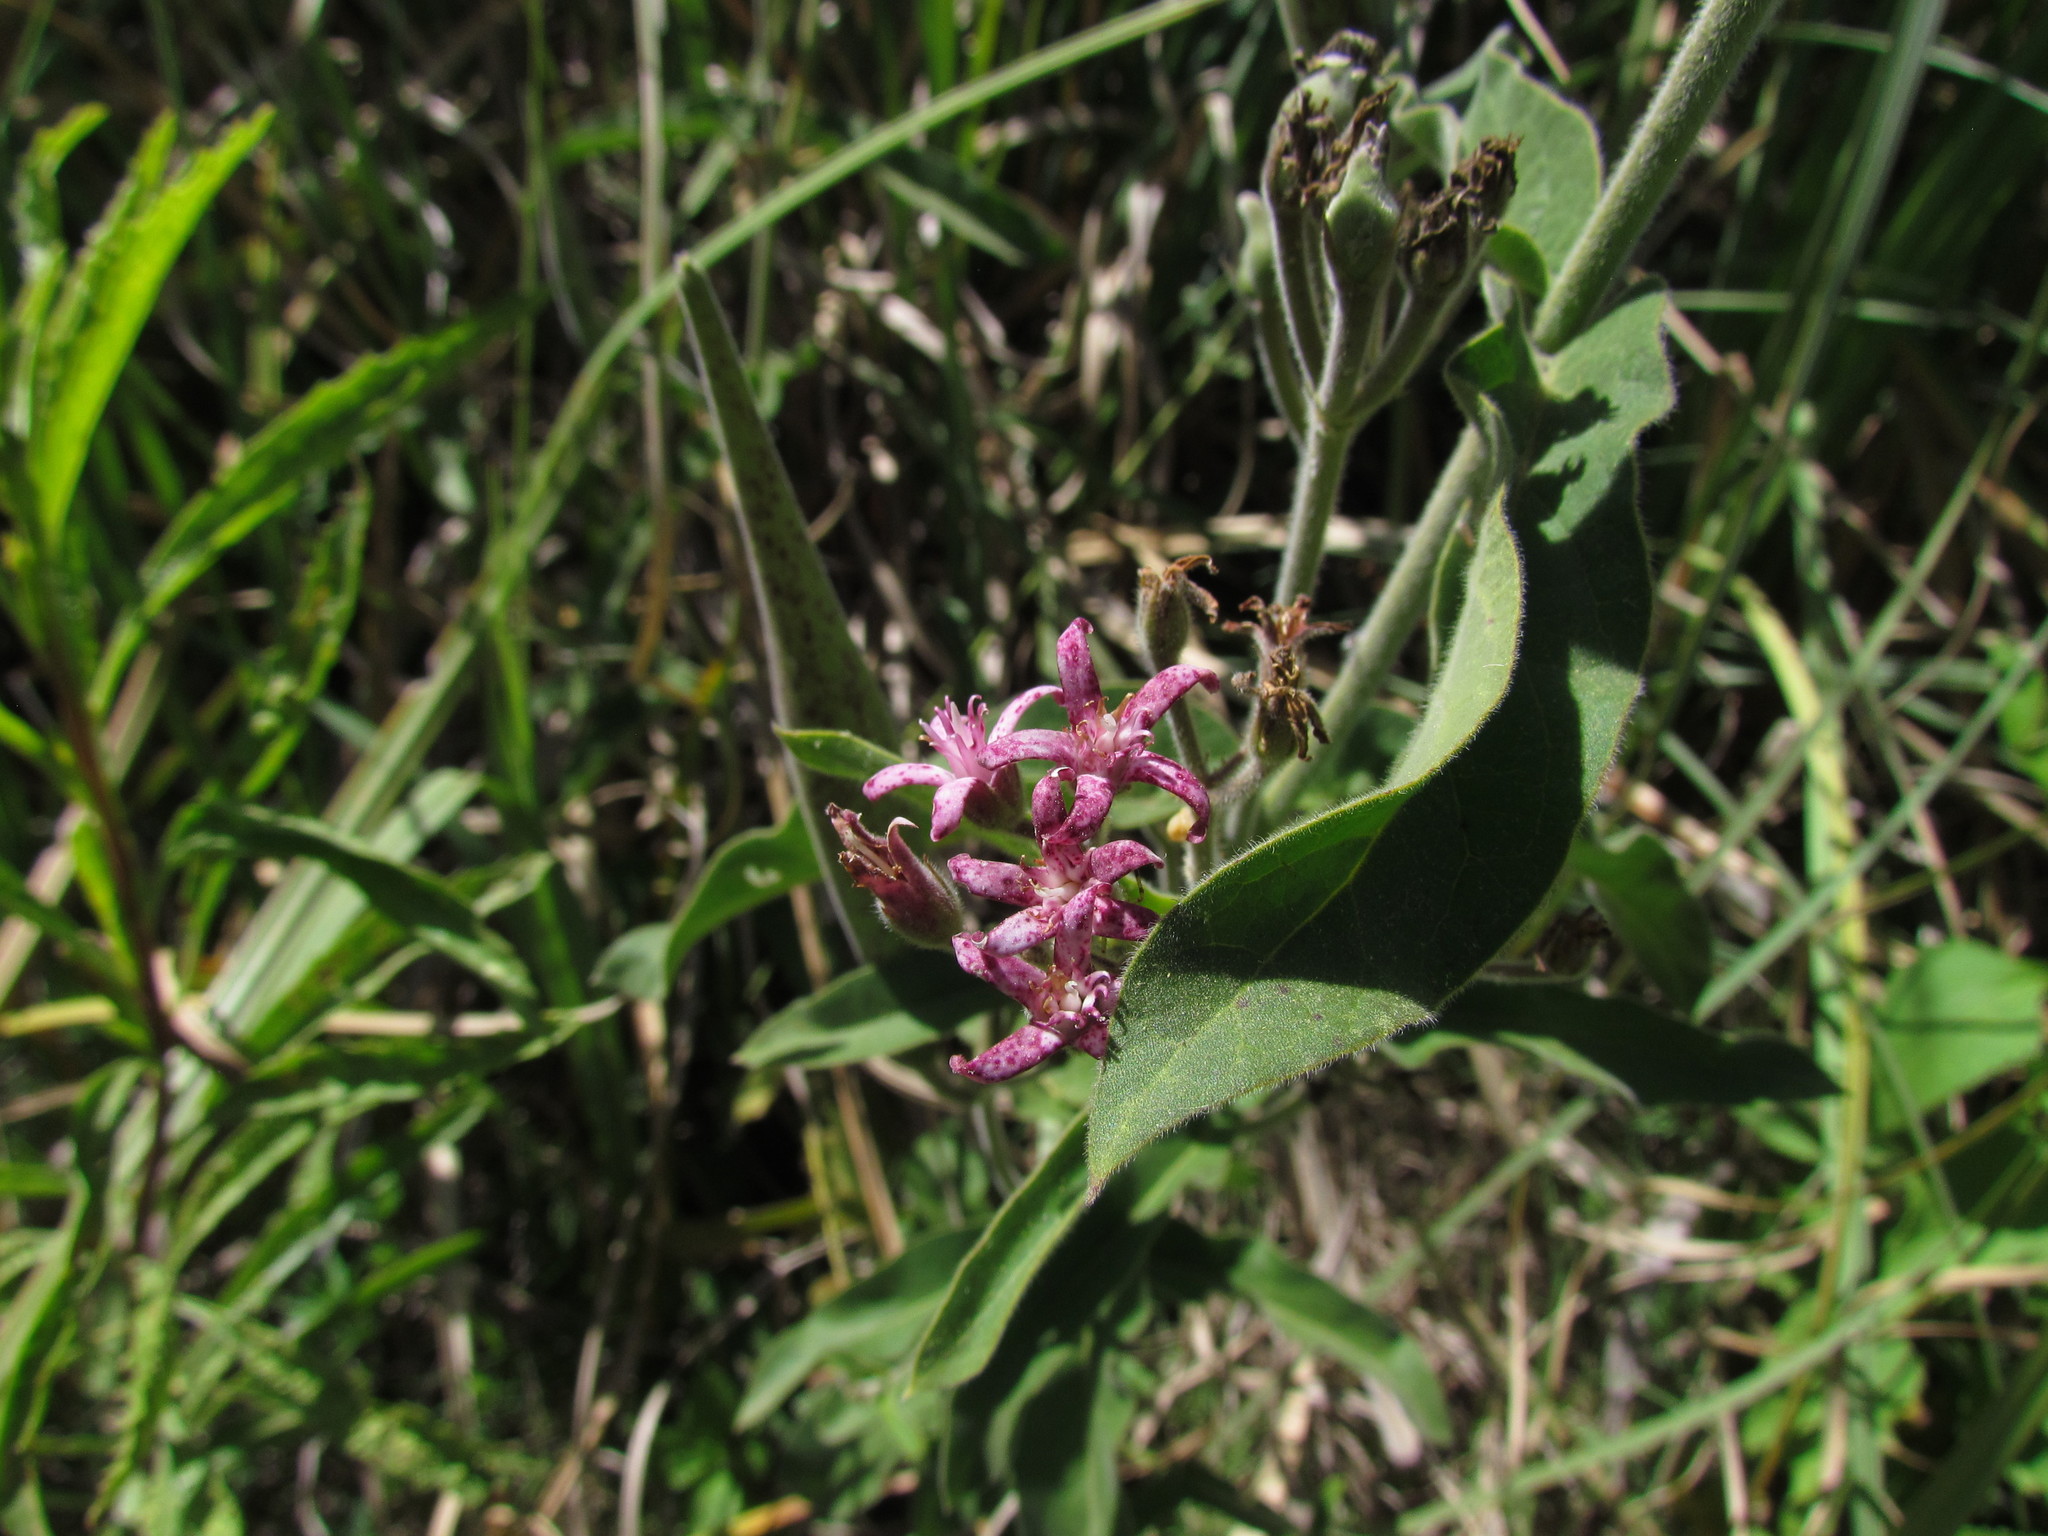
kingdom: Plantae
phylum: Tracheophyta
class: Magnoliopsida
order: Gentianales
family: Apocynaceae
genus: Oxypetalum
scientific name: Oxypetalum solanoides
